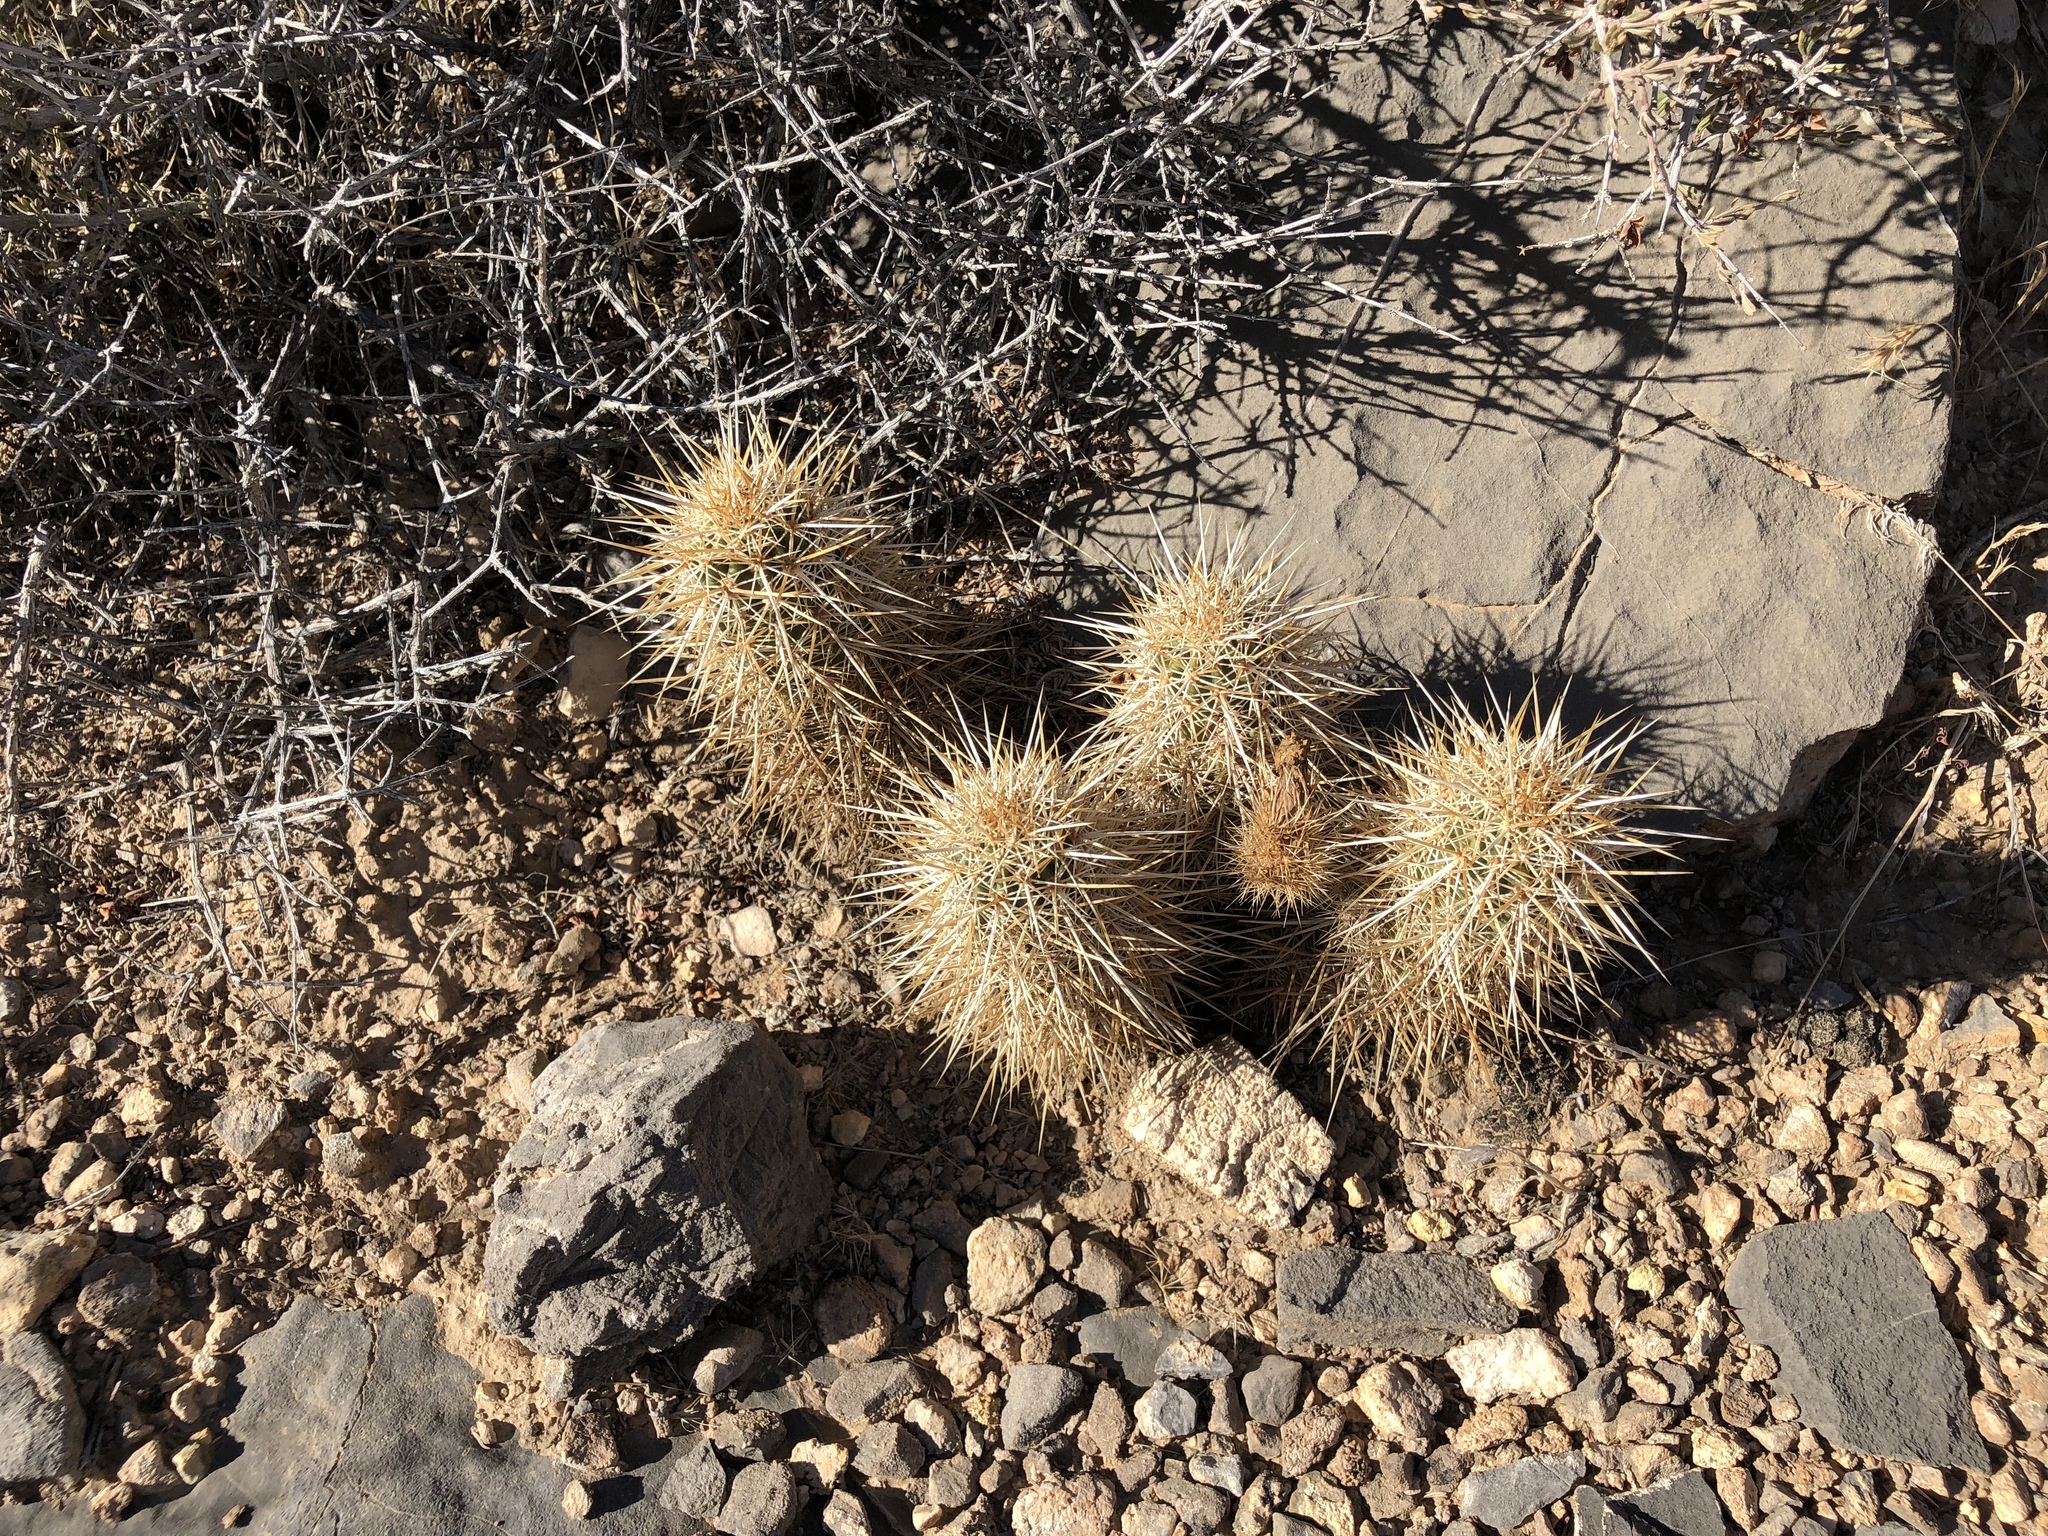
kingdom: Plantae
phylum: Tracheophyta
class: Magnoliopsida
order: Caryophyllales
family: Cactaceae
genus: Echinocereus
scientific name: Echinocereus engelmannii
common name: Engelmann's hedgehog cactus
